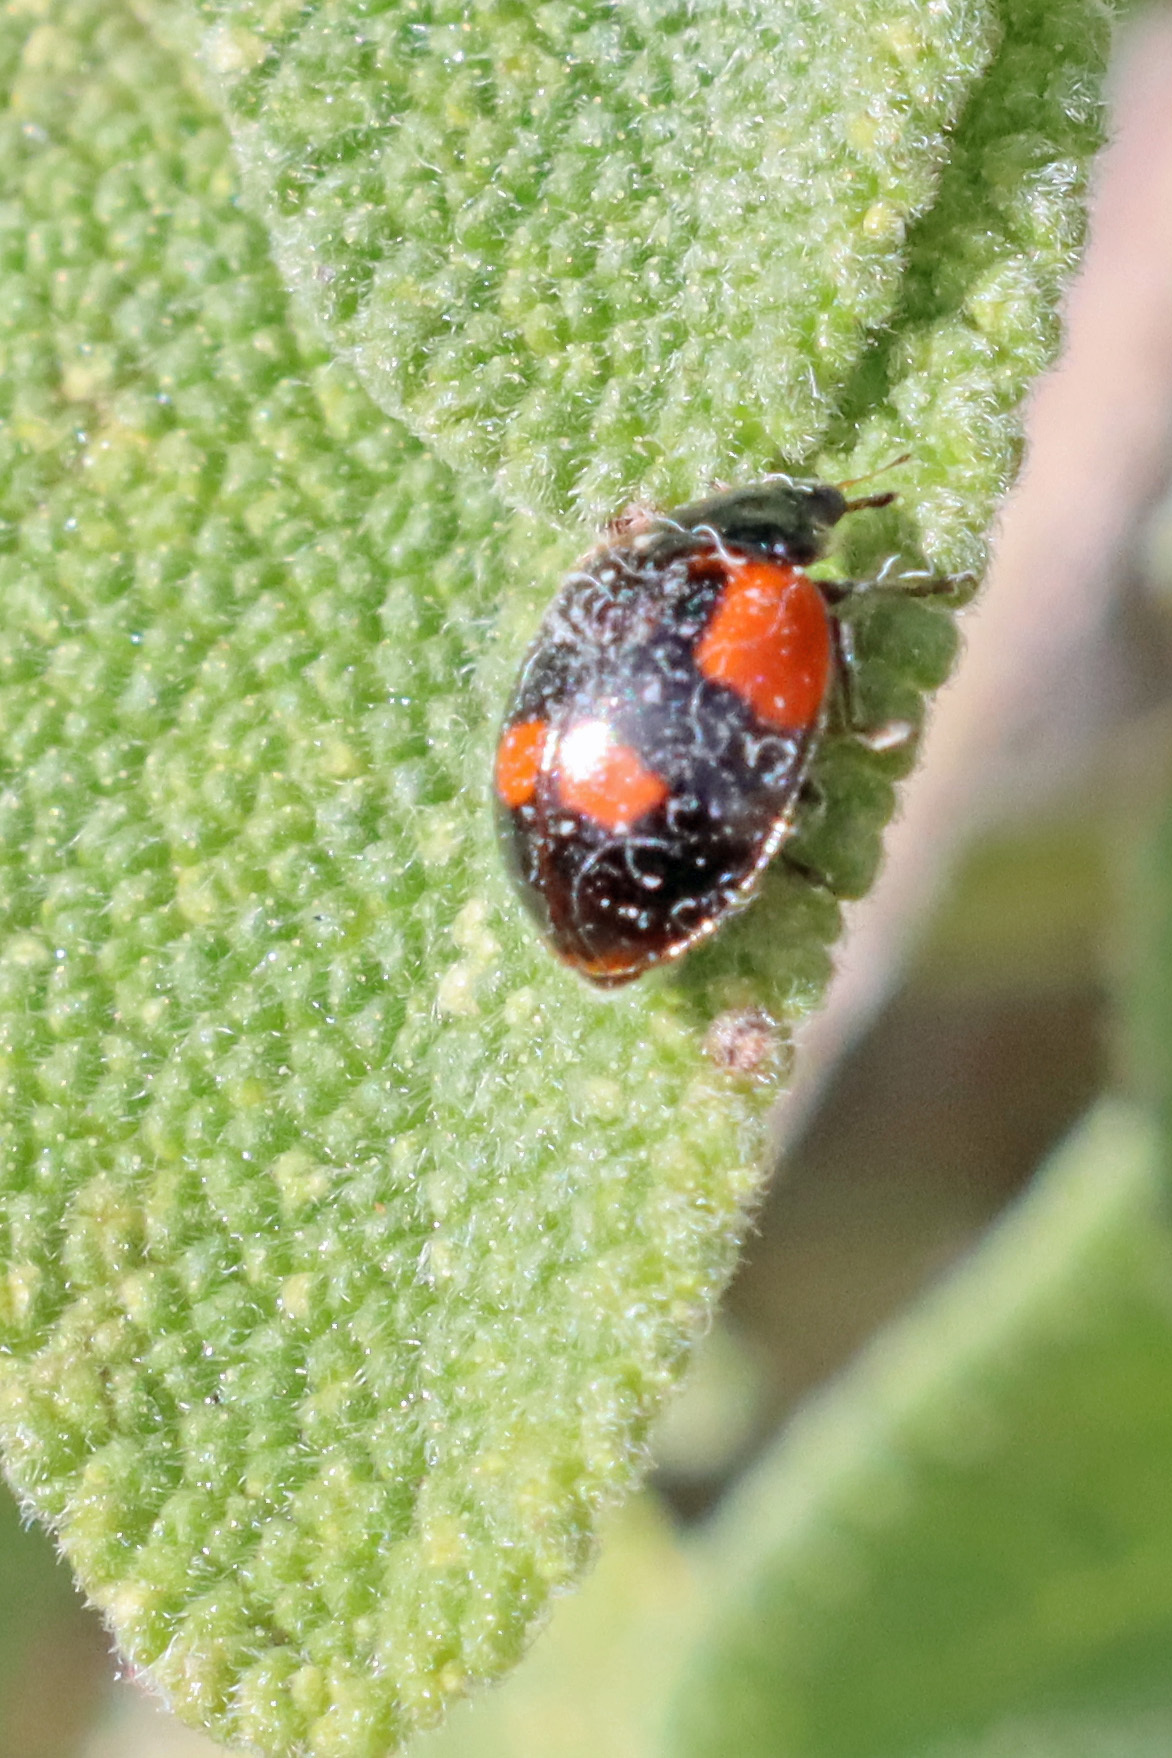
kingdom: Animalia
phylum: Arthropoda
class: Insecta
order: Coleoptera
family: Coccinellidae
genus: Adalia
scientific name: Adalia bipunctata
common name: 2-spot ladybird
